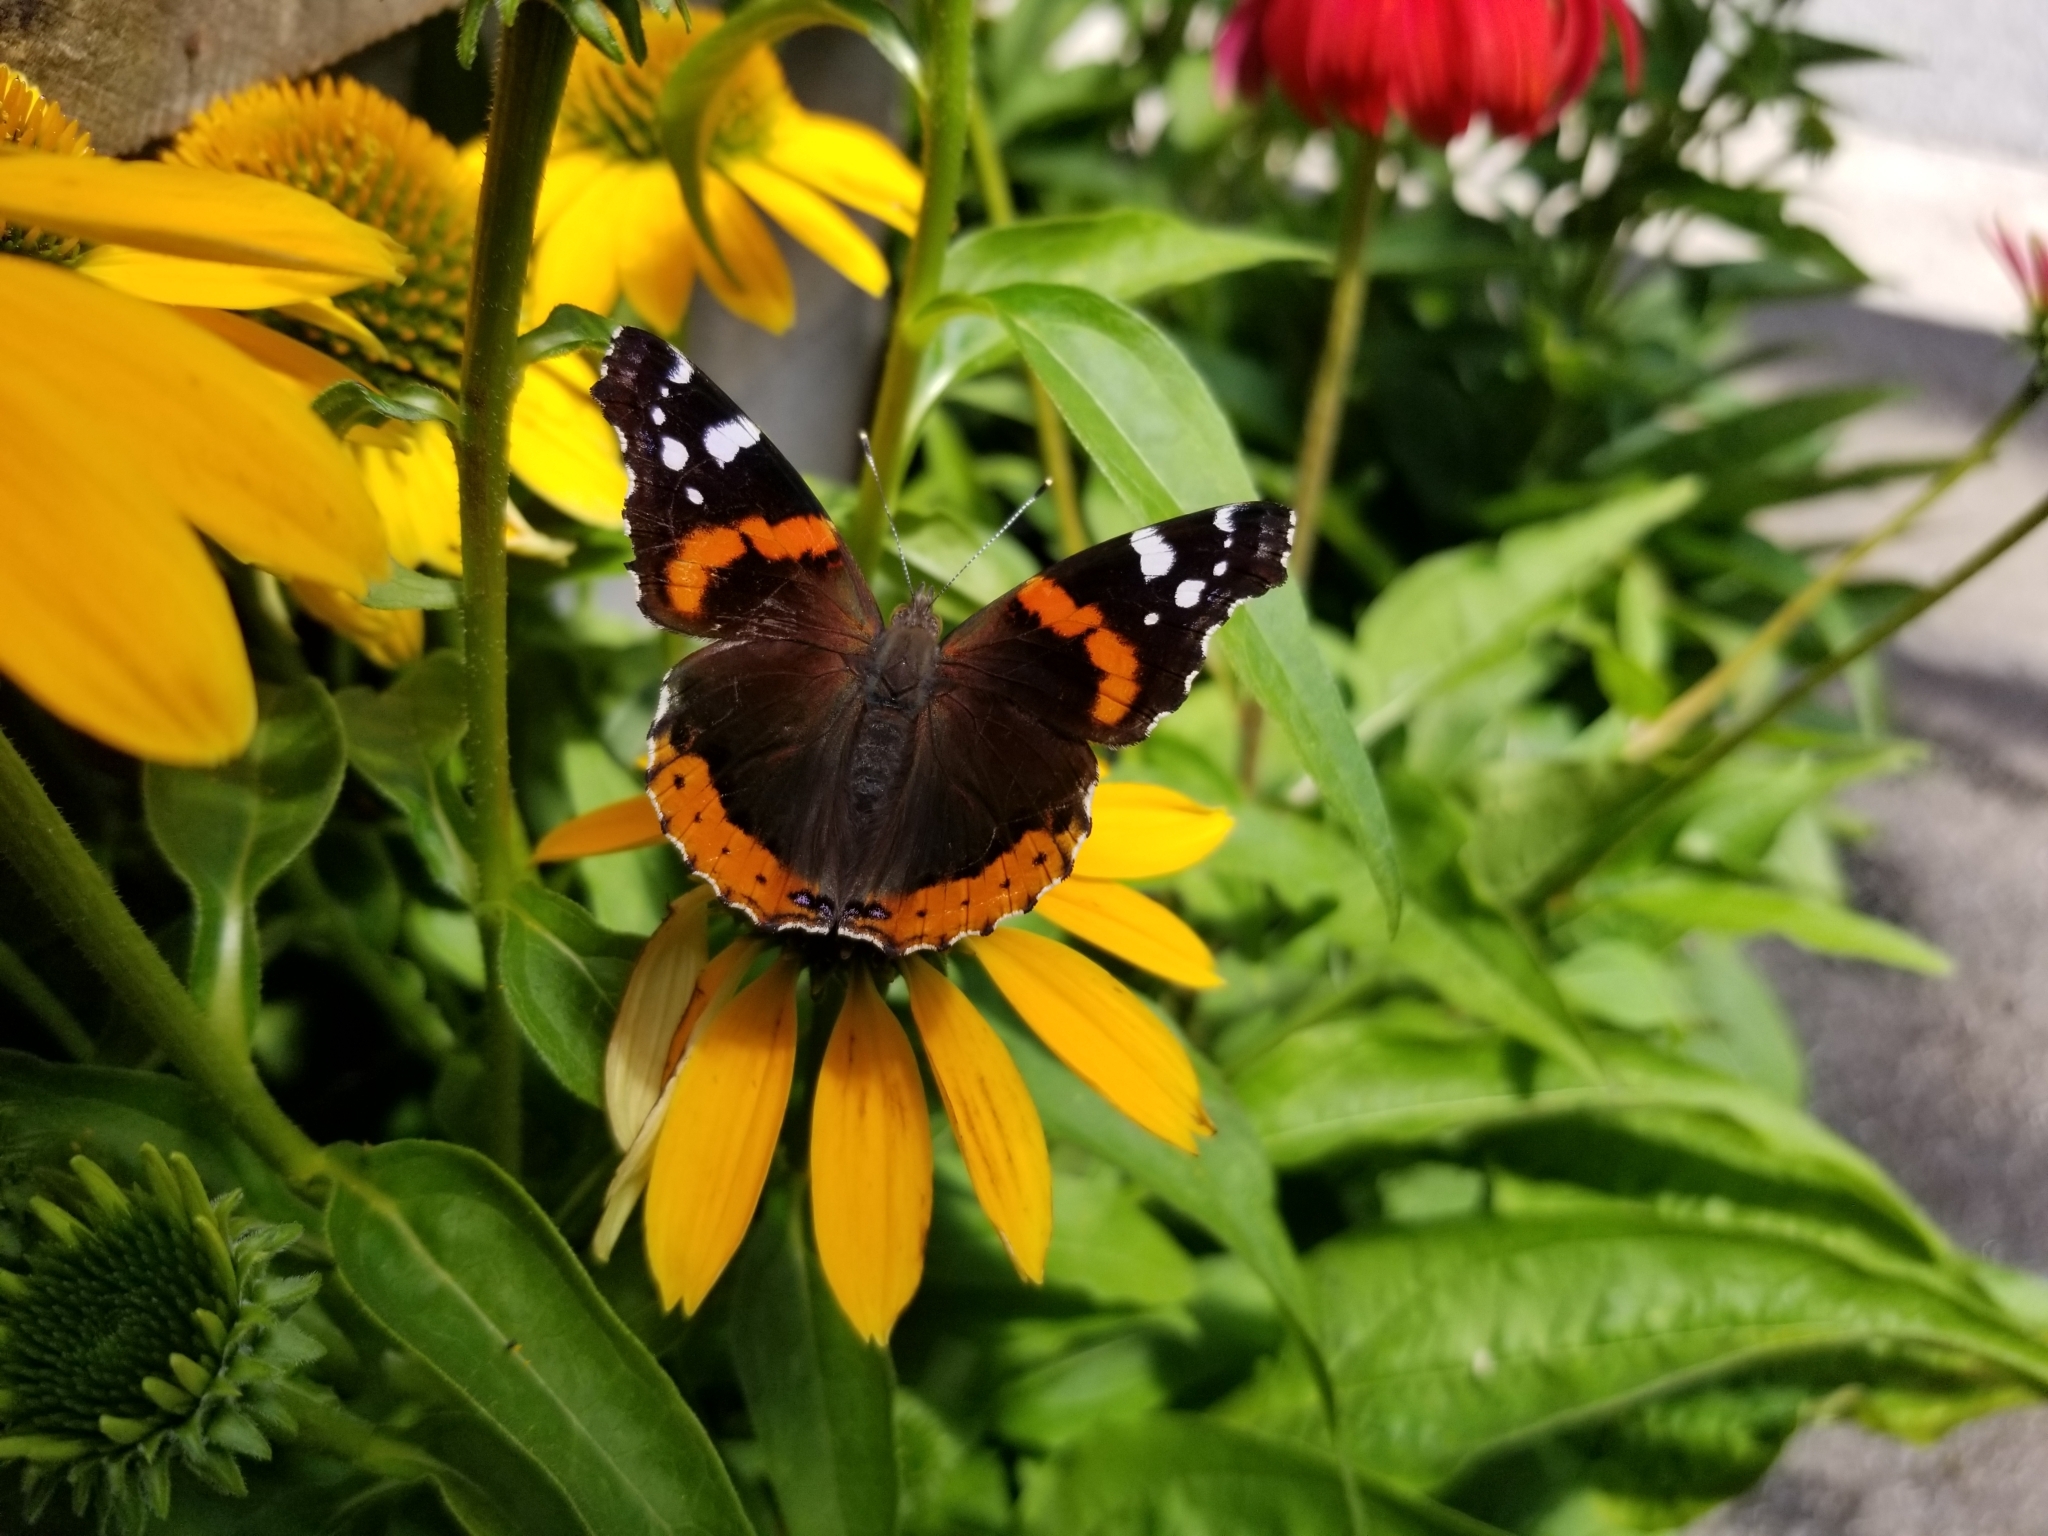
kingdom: Animalia
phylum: Arthropoda
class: Insecta
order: Lepidoptera
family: Nymphalidae
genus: Vanessa
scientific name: Vanessa atalanta
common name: Red admiral
